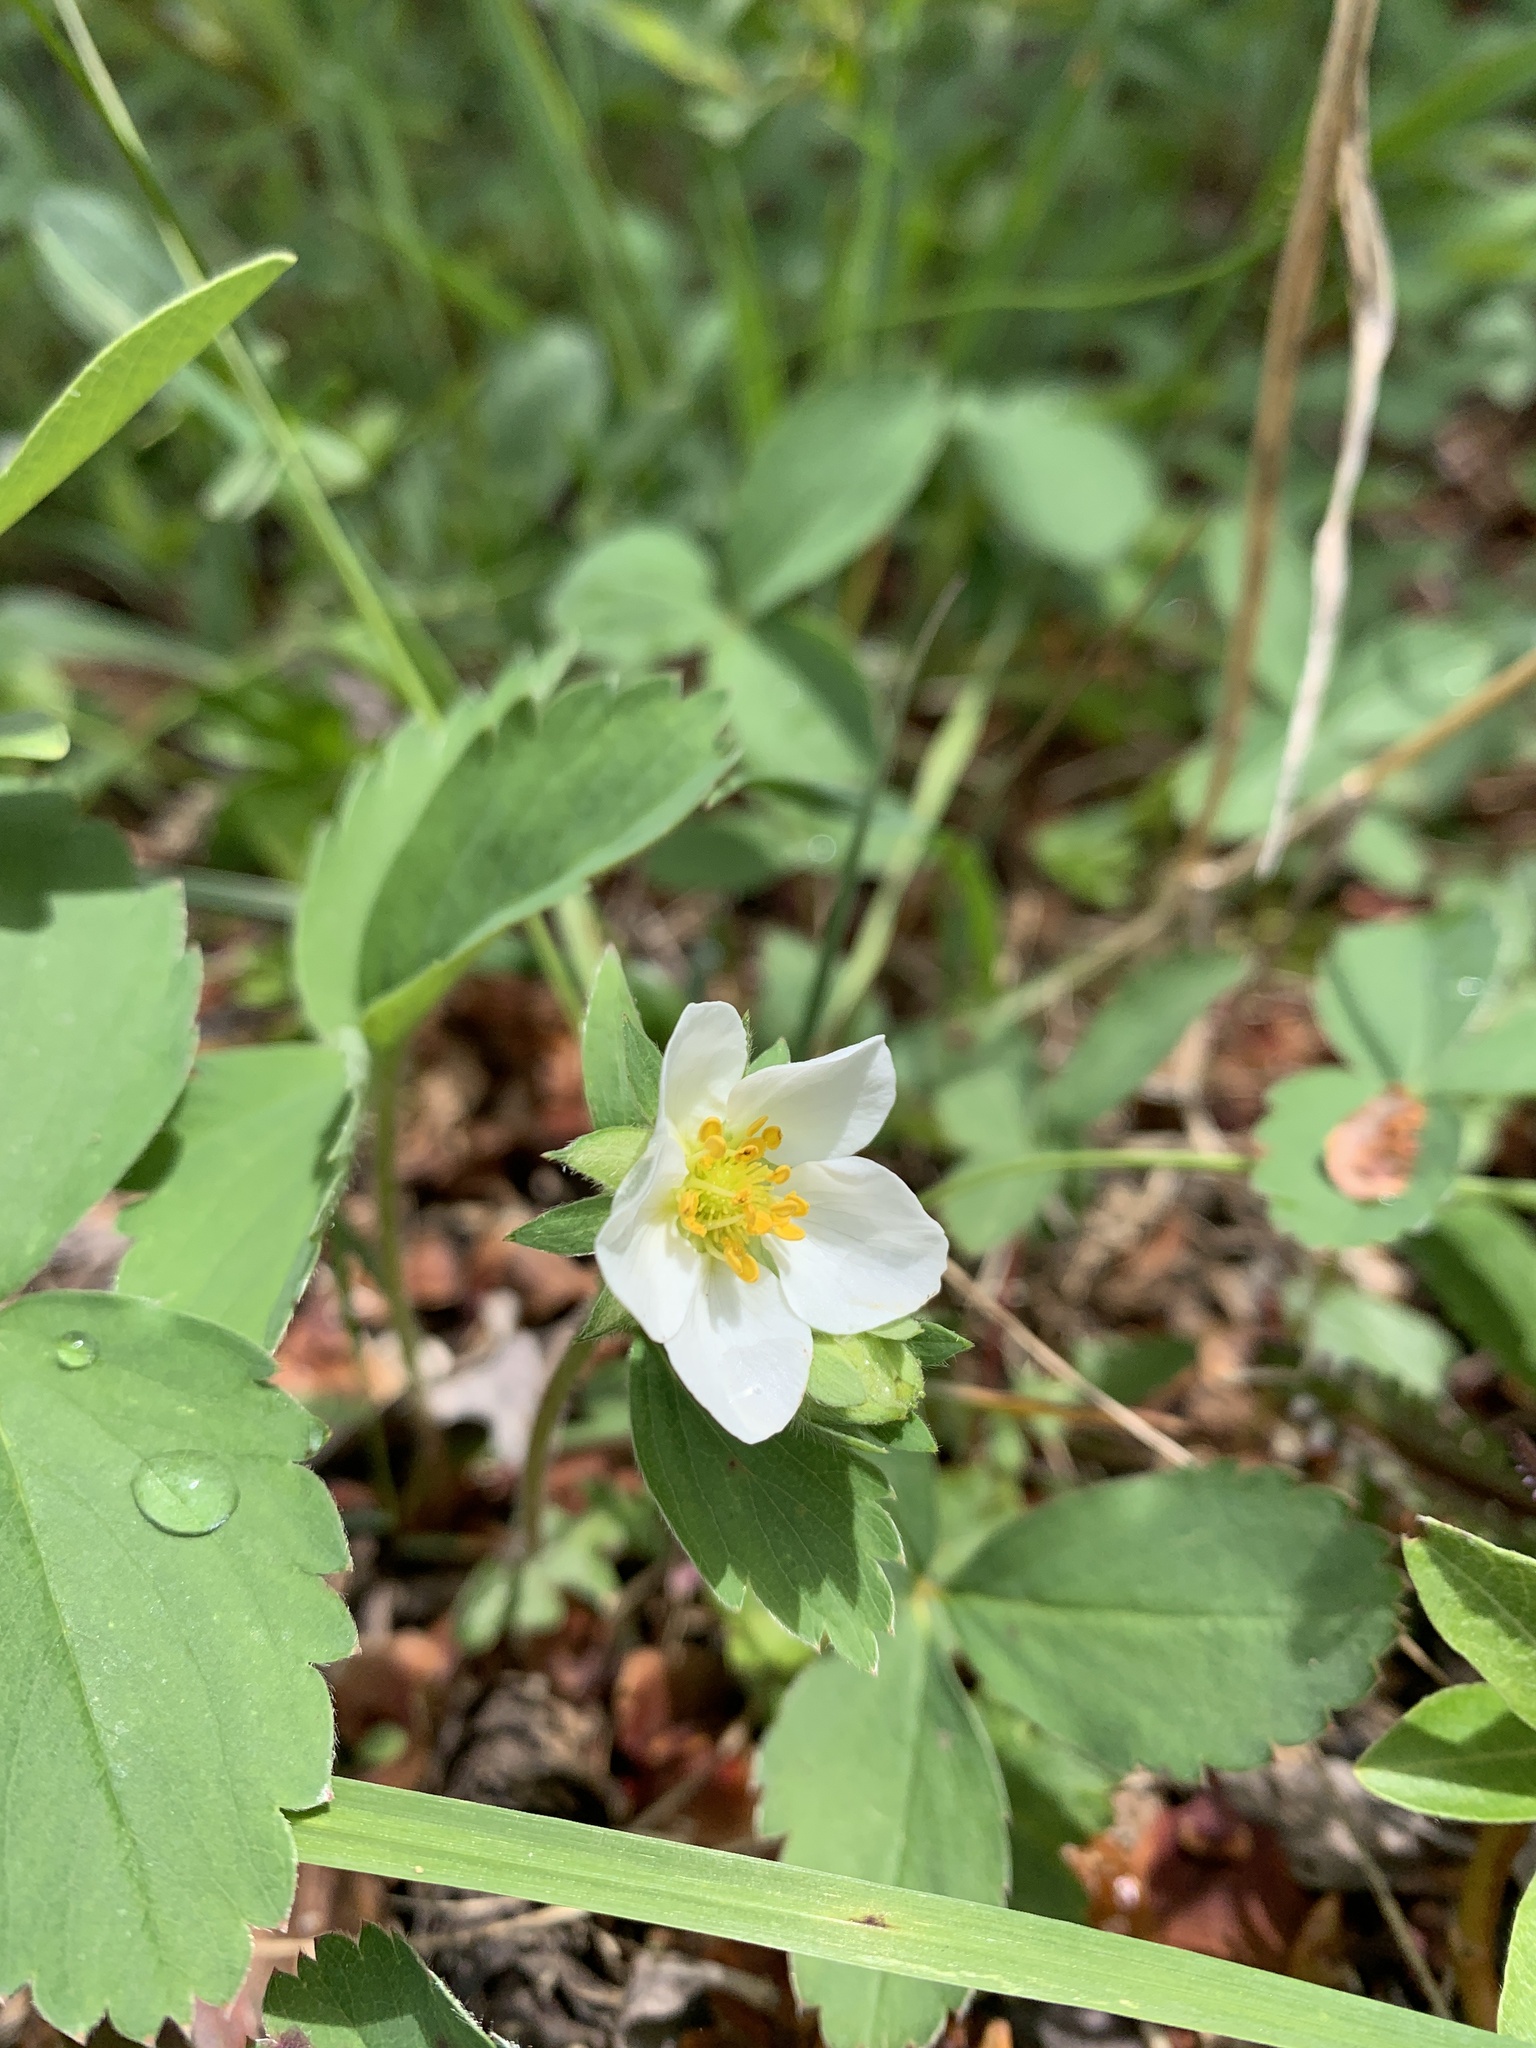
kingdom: Plantae
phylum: Tracheophyta
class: Magnoliopsida
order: Rosales
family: Rosaceae
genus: Fragaria
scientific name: Fragaria virginiana
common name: Thickleaved wild strawberry
